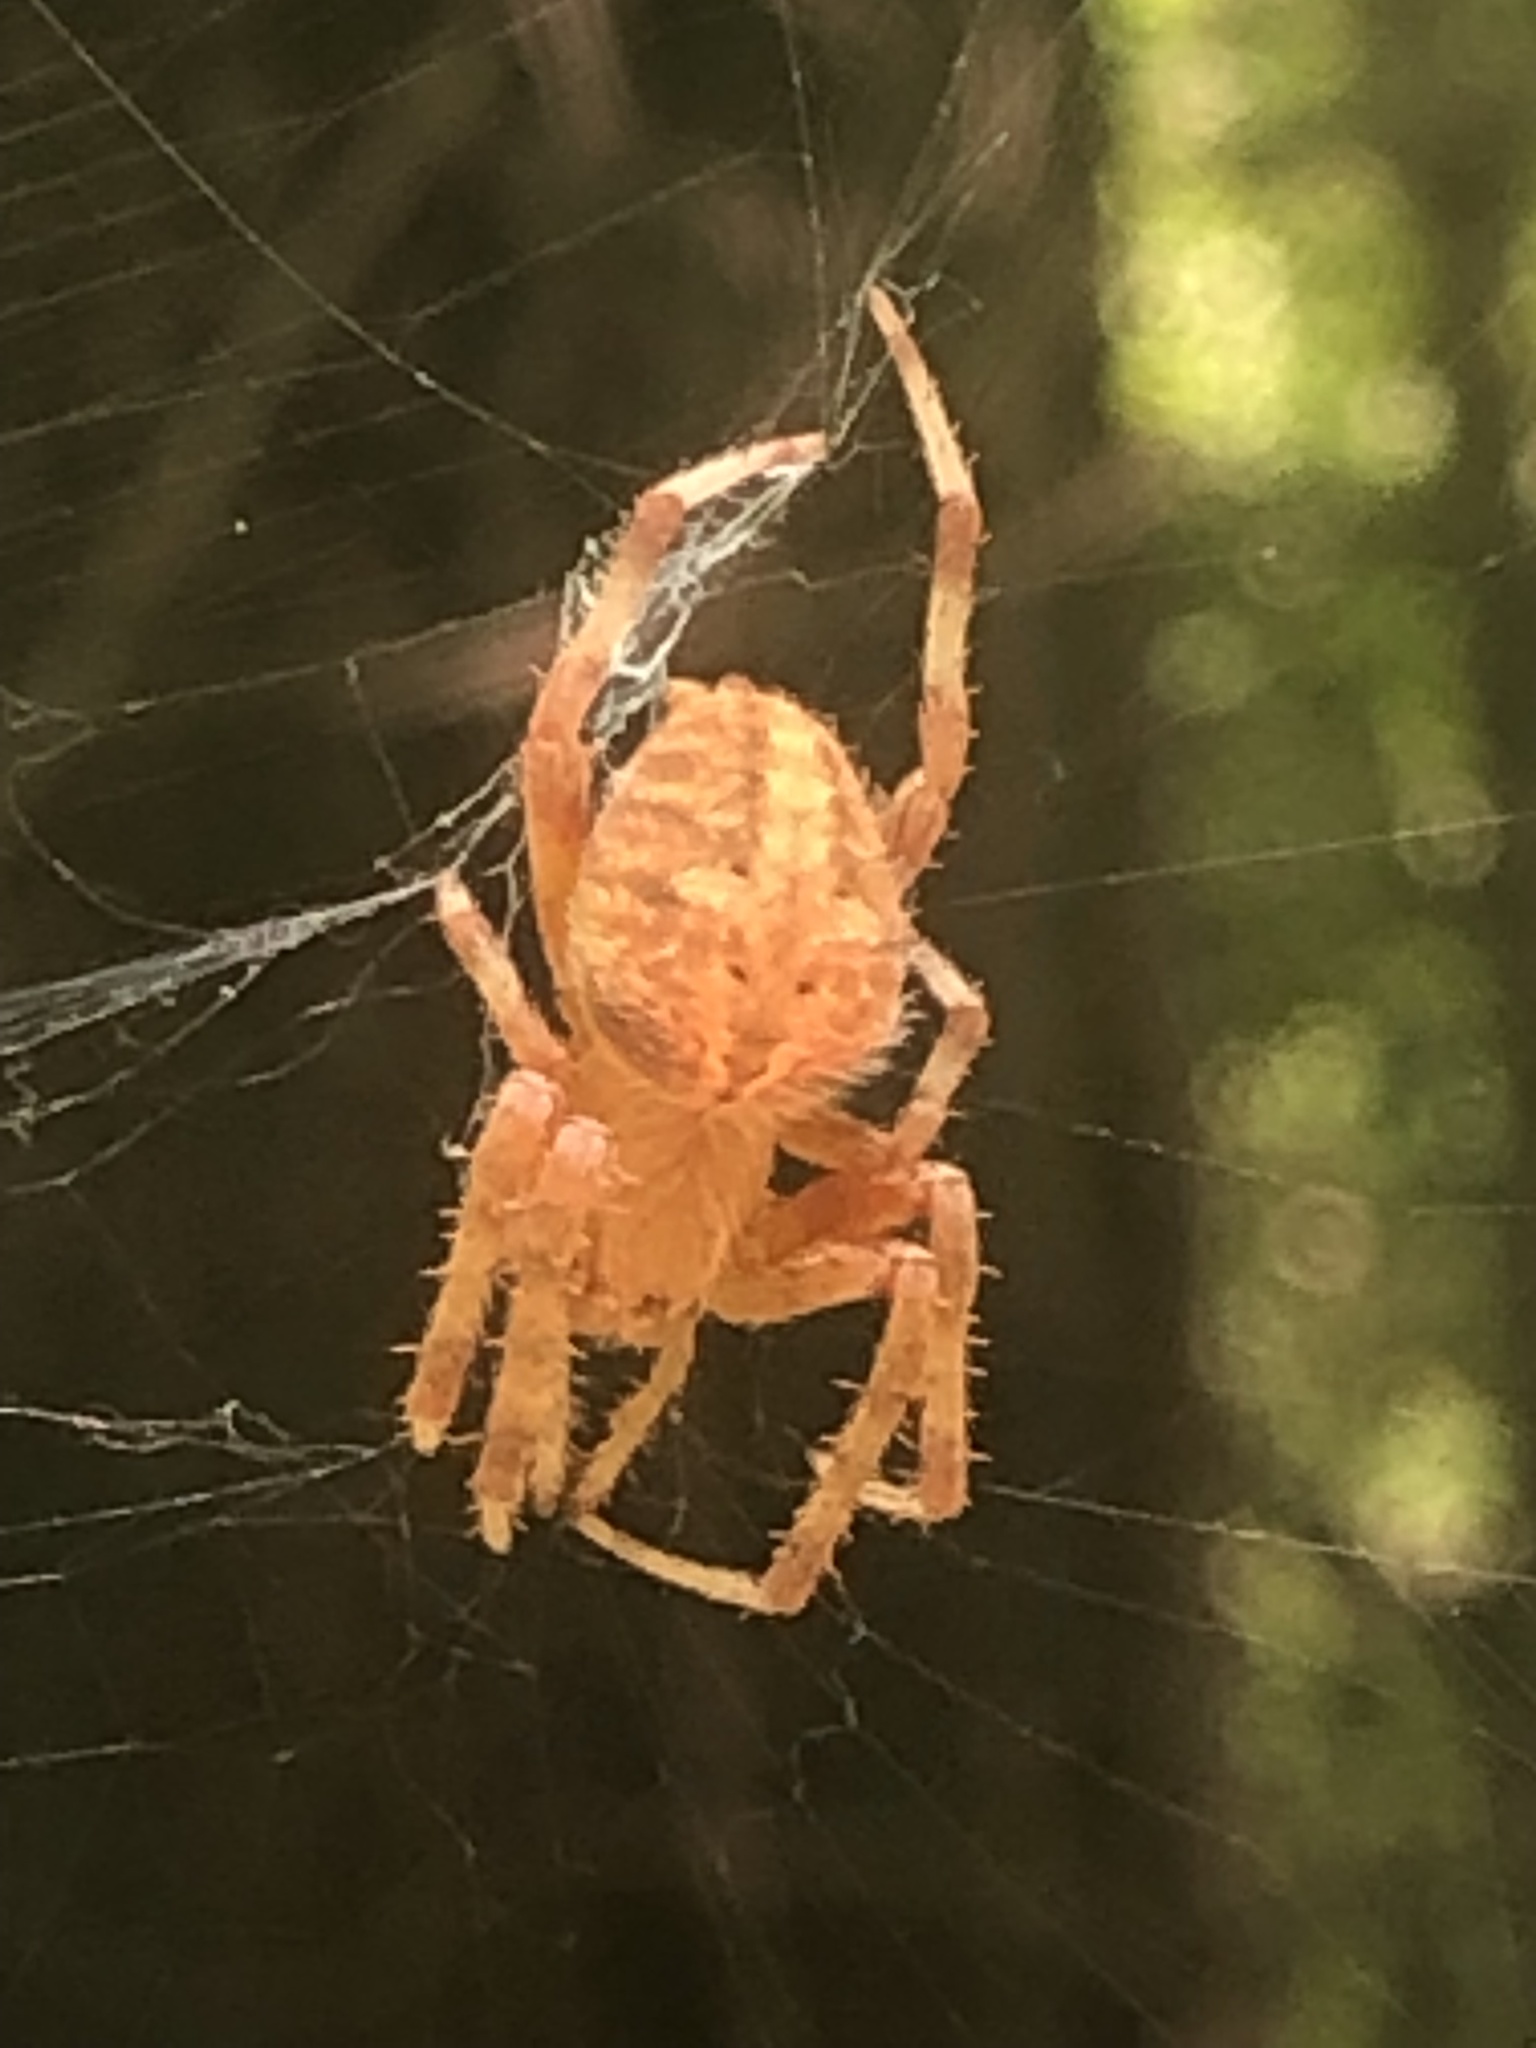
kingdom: Animalia
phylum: Arthropoda
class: Arachnida
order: Araneae
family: Araneidae
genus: Neoscona
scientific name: Neoscona crucifera
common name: Spotted orbweaver
